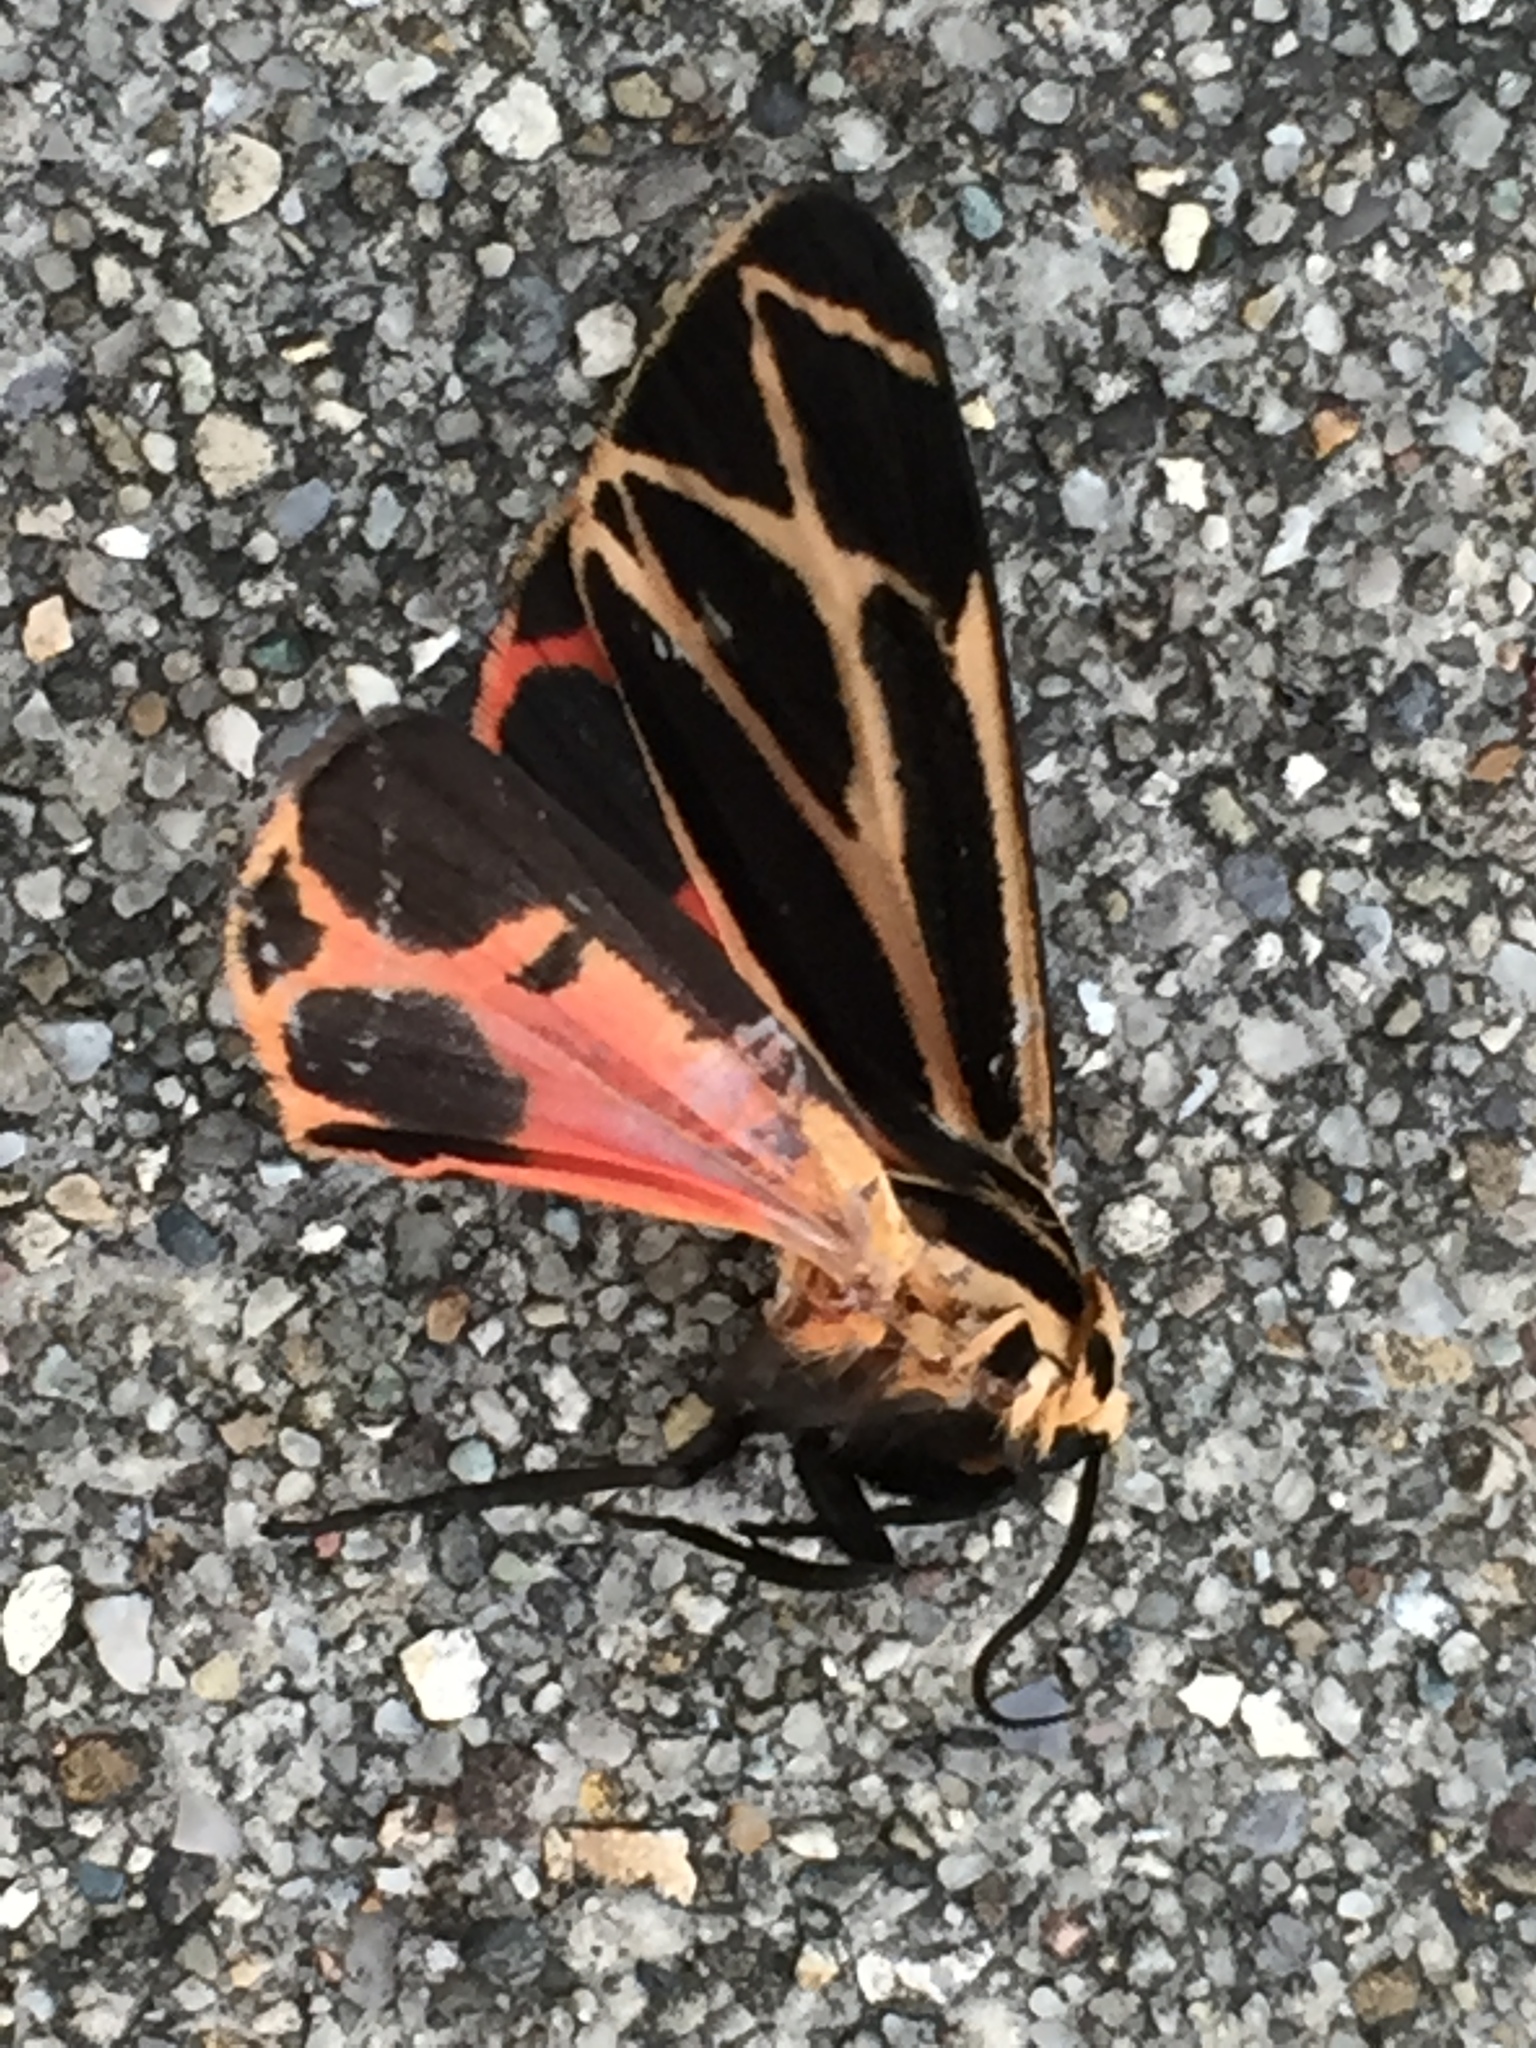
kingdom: Animalia
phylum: Arthropoda
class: Insecta
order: Lepidoptera
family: Erebidae
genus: Apantesis
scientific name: Apantesis phalerata
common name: Harnessed tiger moth
